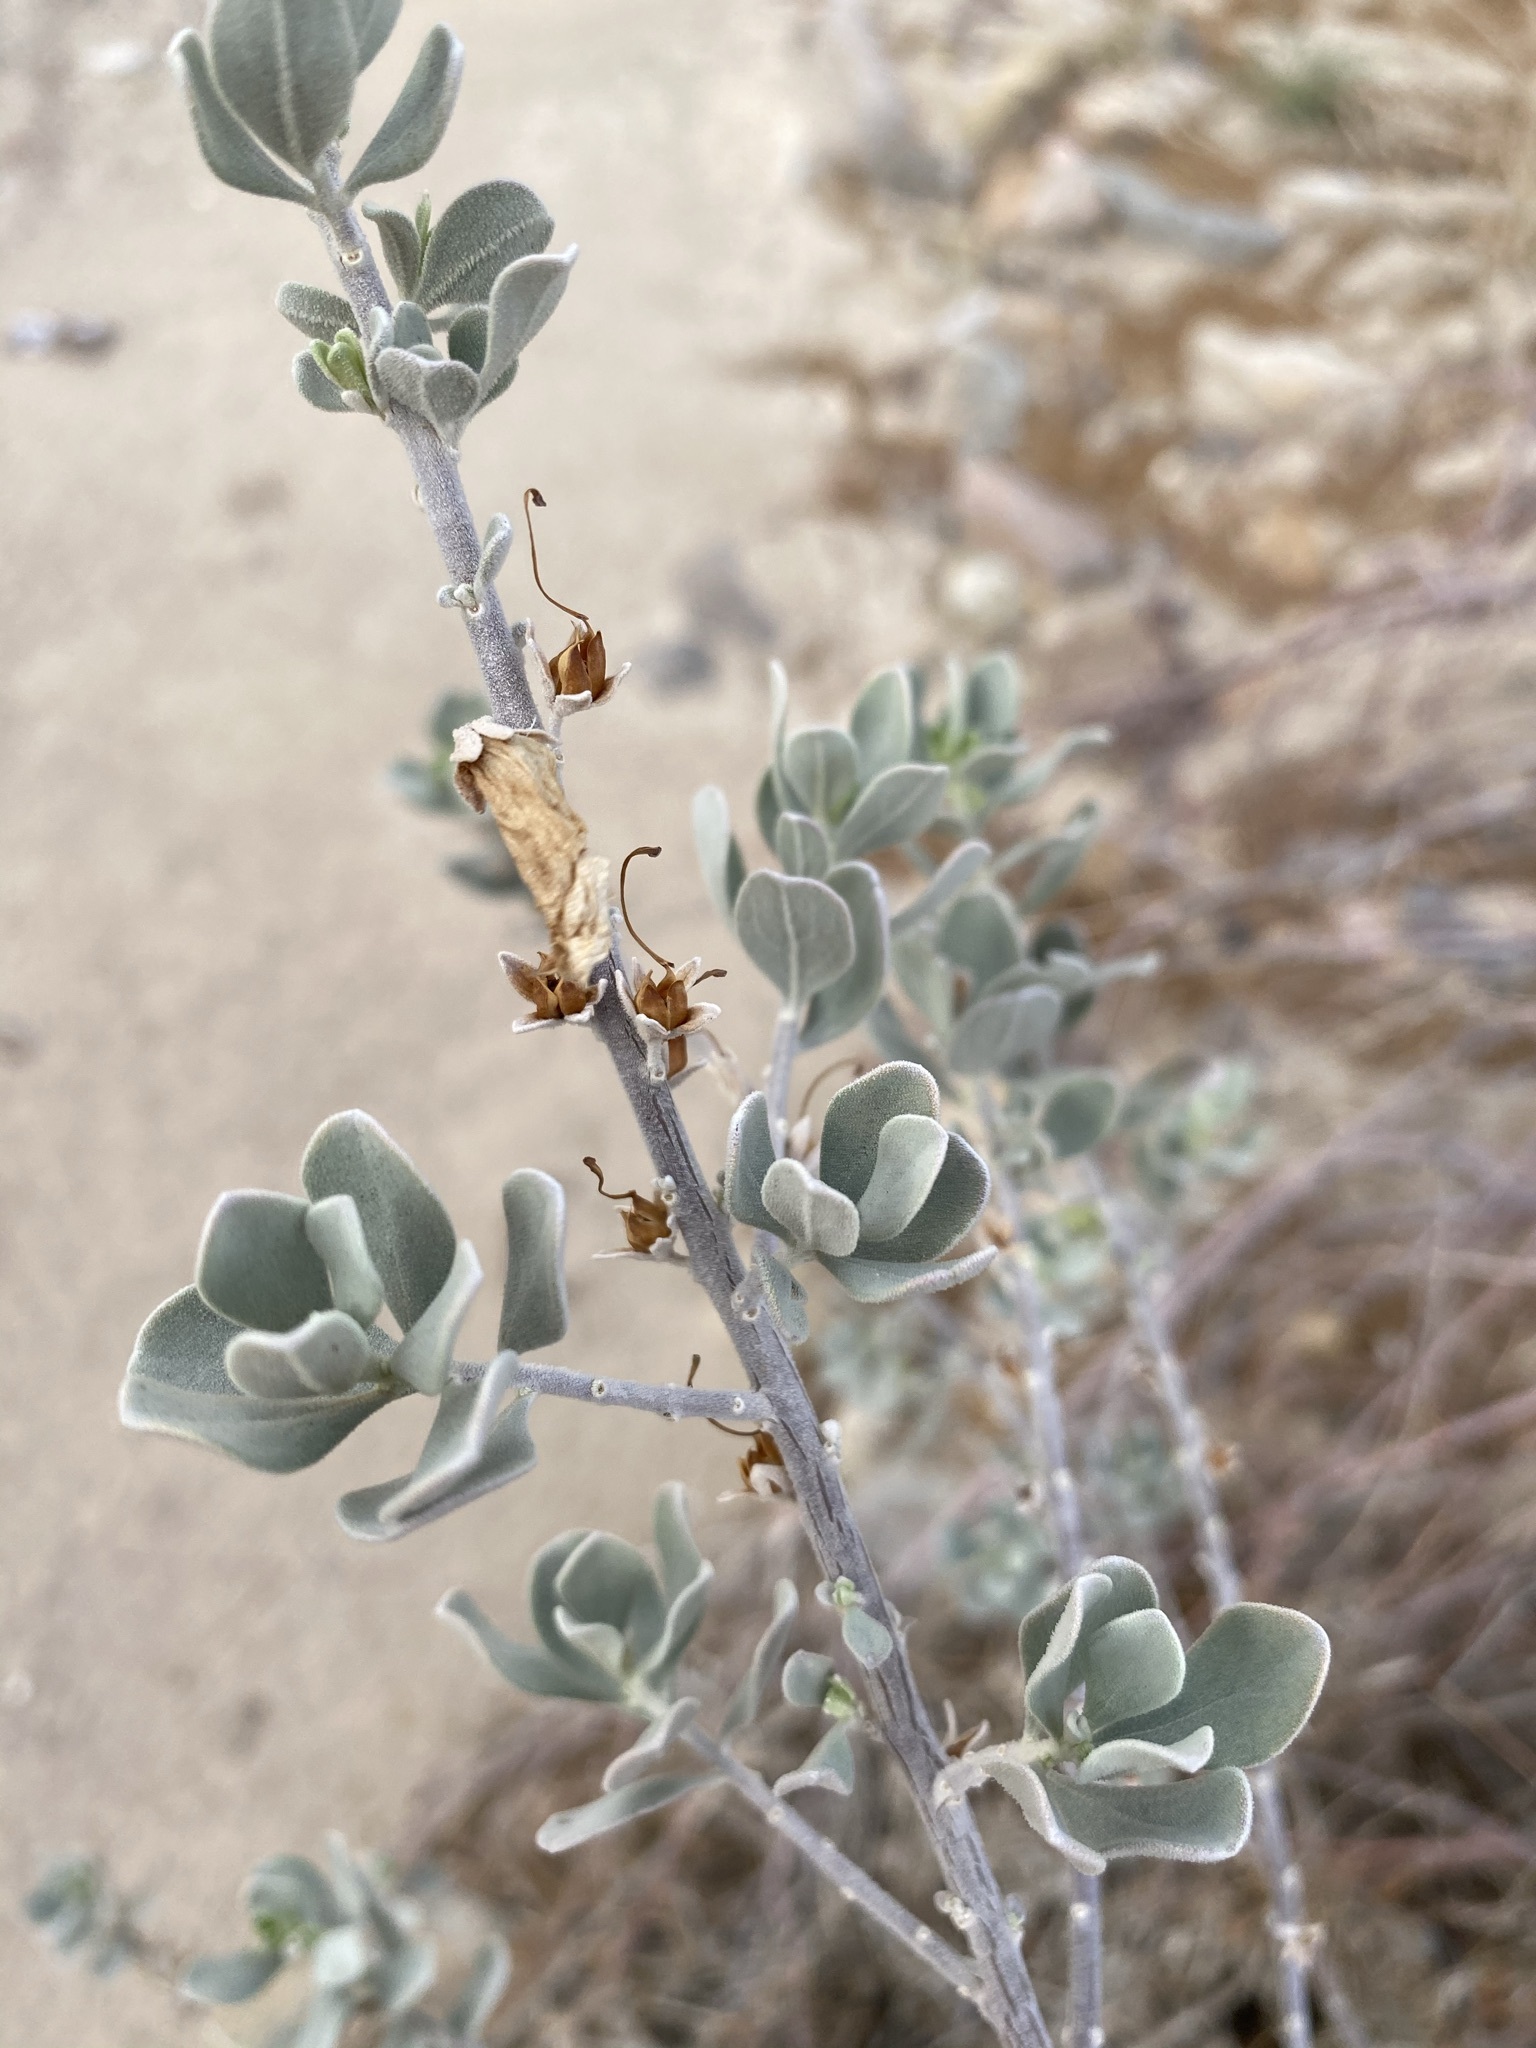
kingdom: Plantae
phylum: Tracheophyta
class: Magnoliopsida
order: Lamiales
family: Scrophulariaceae
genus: Leucophyllum
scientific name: Leucophyllum frutescens
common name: Texas silverleaf
